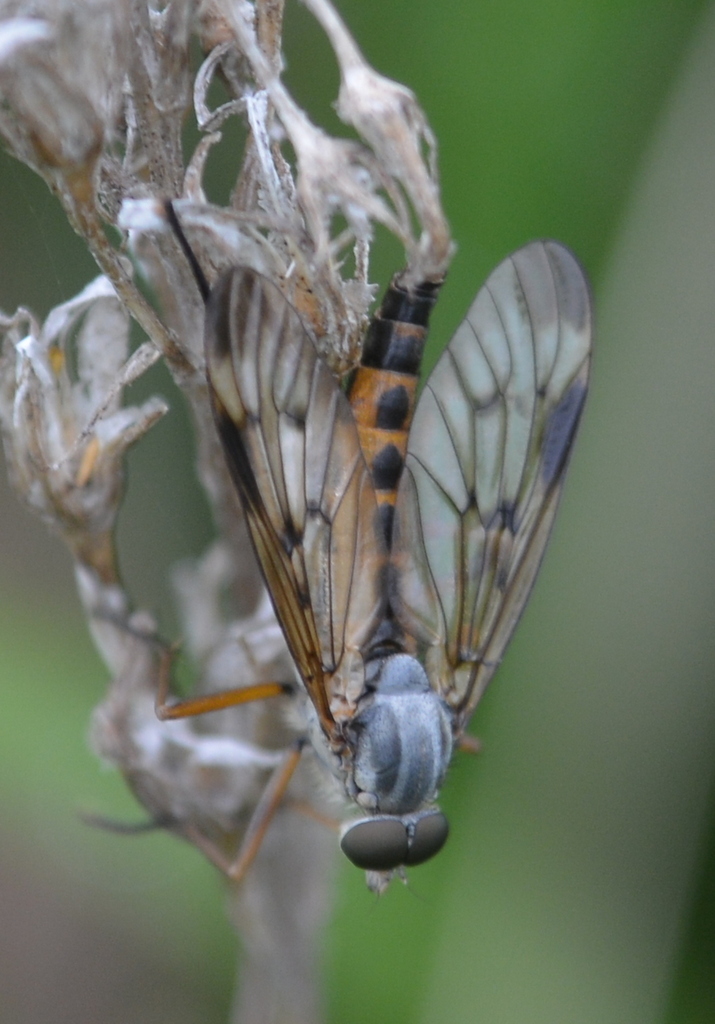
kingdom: Animalia
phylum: Arthropoda
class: Insecta
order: Diptera
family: Rhagionidae
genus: Rhagio
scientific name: Rhagio scolopacea
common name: Downlooker snipefly
